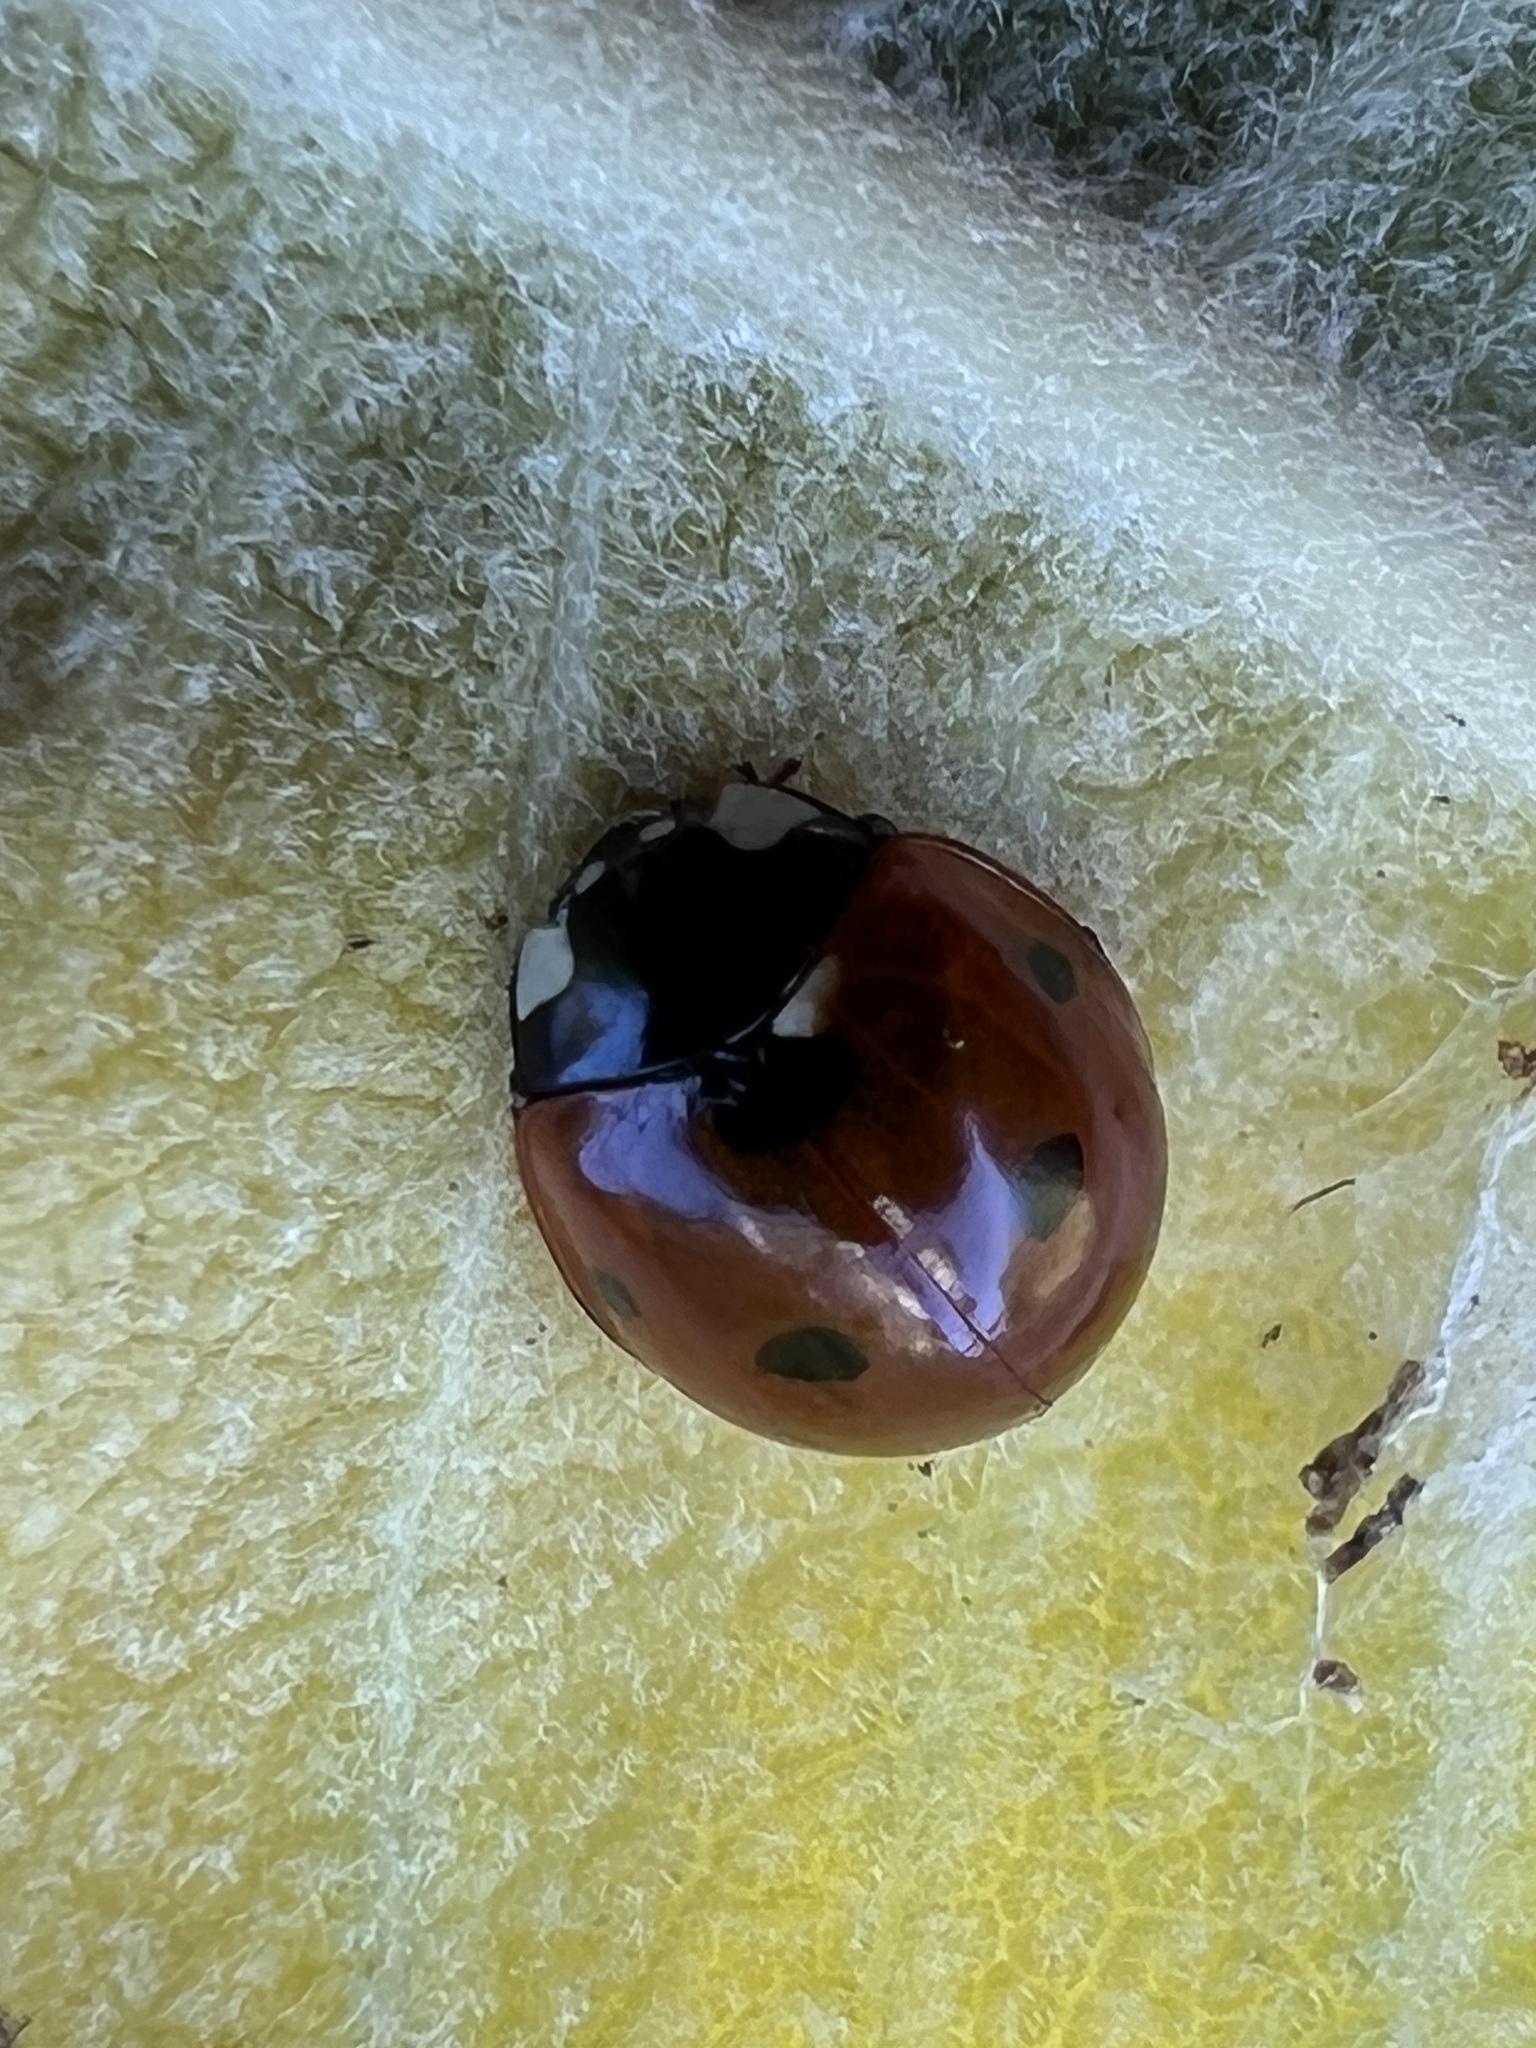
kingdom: Animalia
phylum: Arthropoda
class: Insecta
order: Coleoptera
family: Coccinellidae
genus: Coccinella
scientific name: Coccinella septempunctata
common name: Sevenspotted lady beetle
